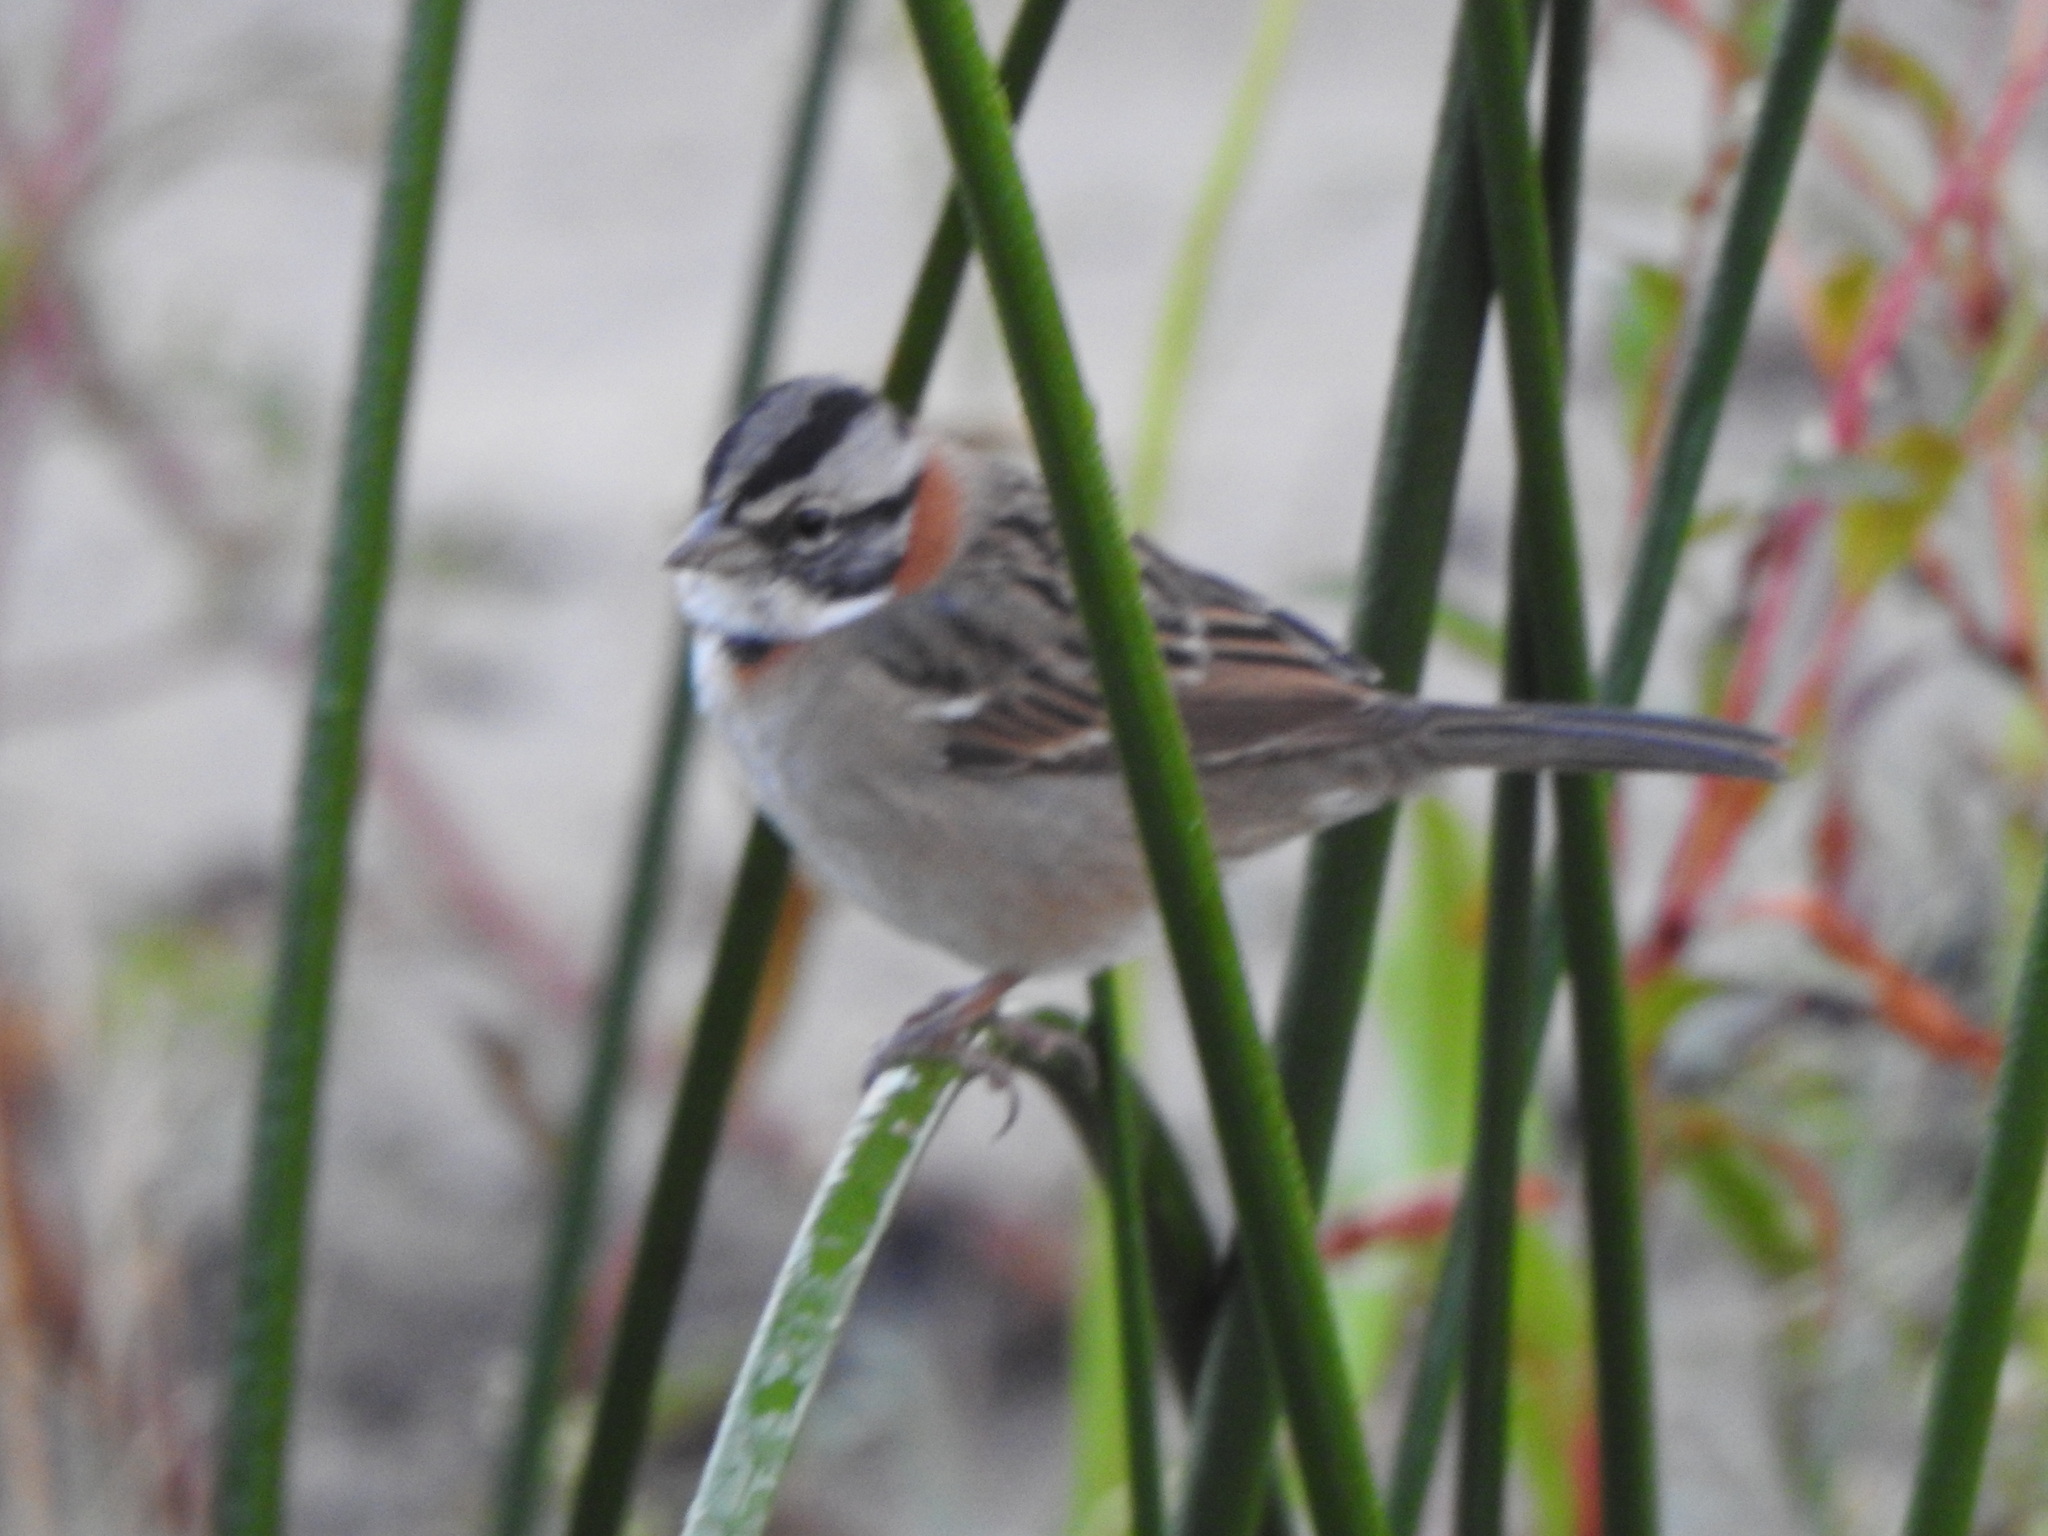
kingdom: Animalia
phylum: Chordata
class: Aves
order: Passeriformes
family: Passerellidae
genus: Zonotrichia
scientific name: Zonotrichia capensis
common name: Rufous-collared sparrow
